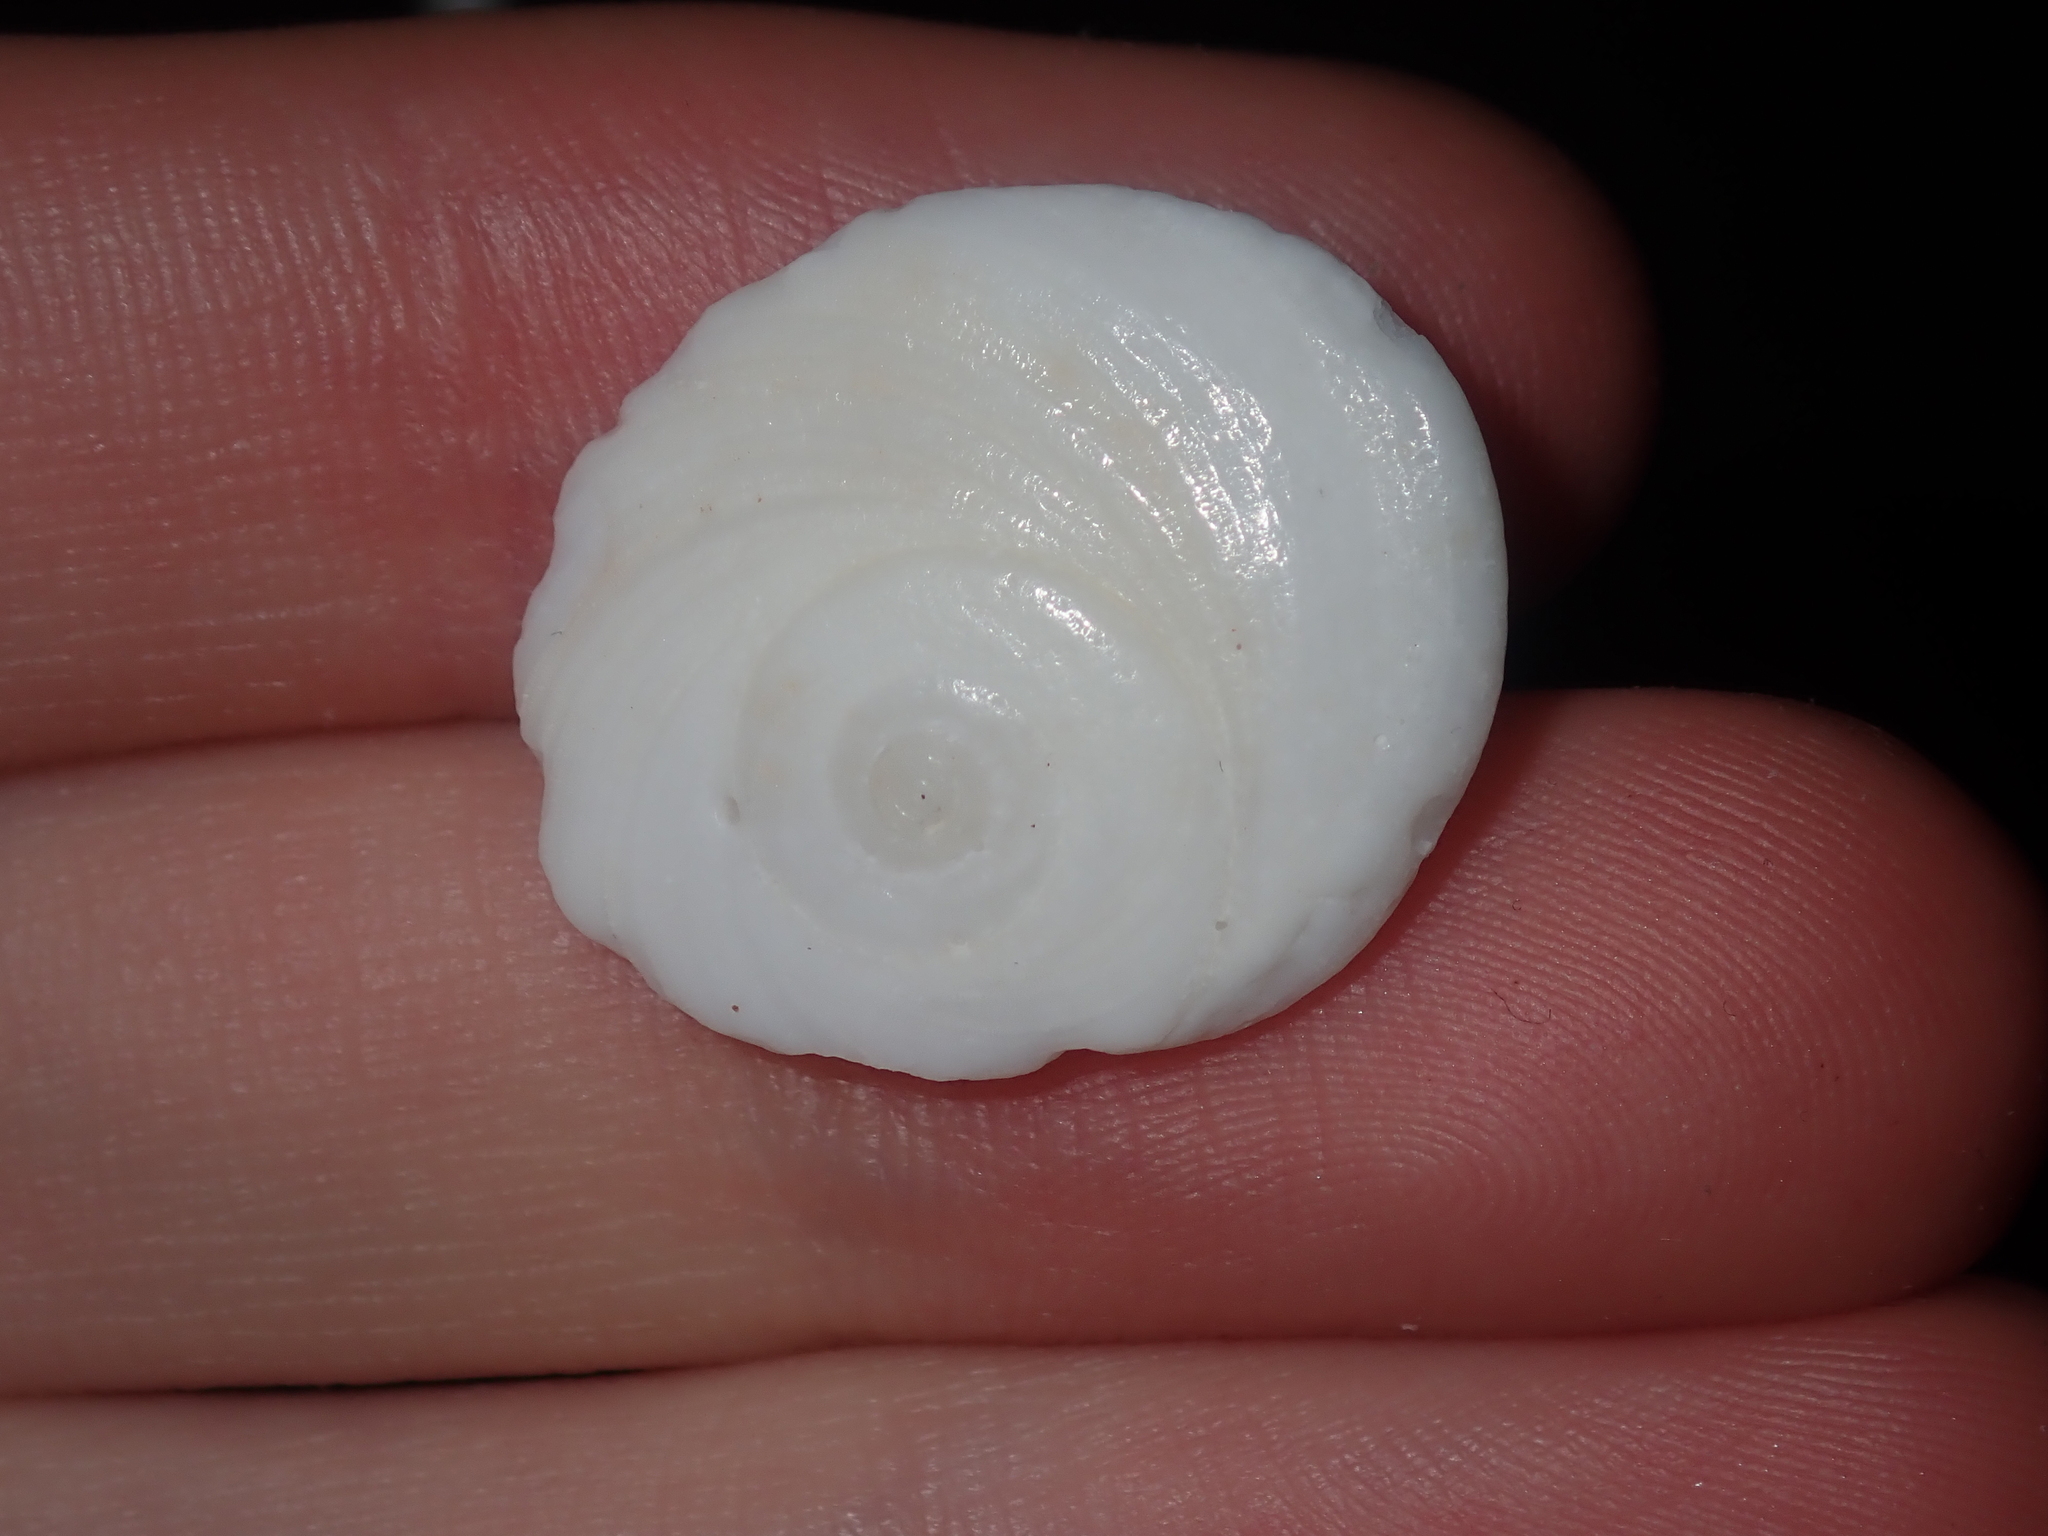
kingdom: Animalia
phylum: Mollusca
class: Gastropoda
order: Trochida
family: Turbinidae
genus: Lunella
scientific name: Lunella torquata
